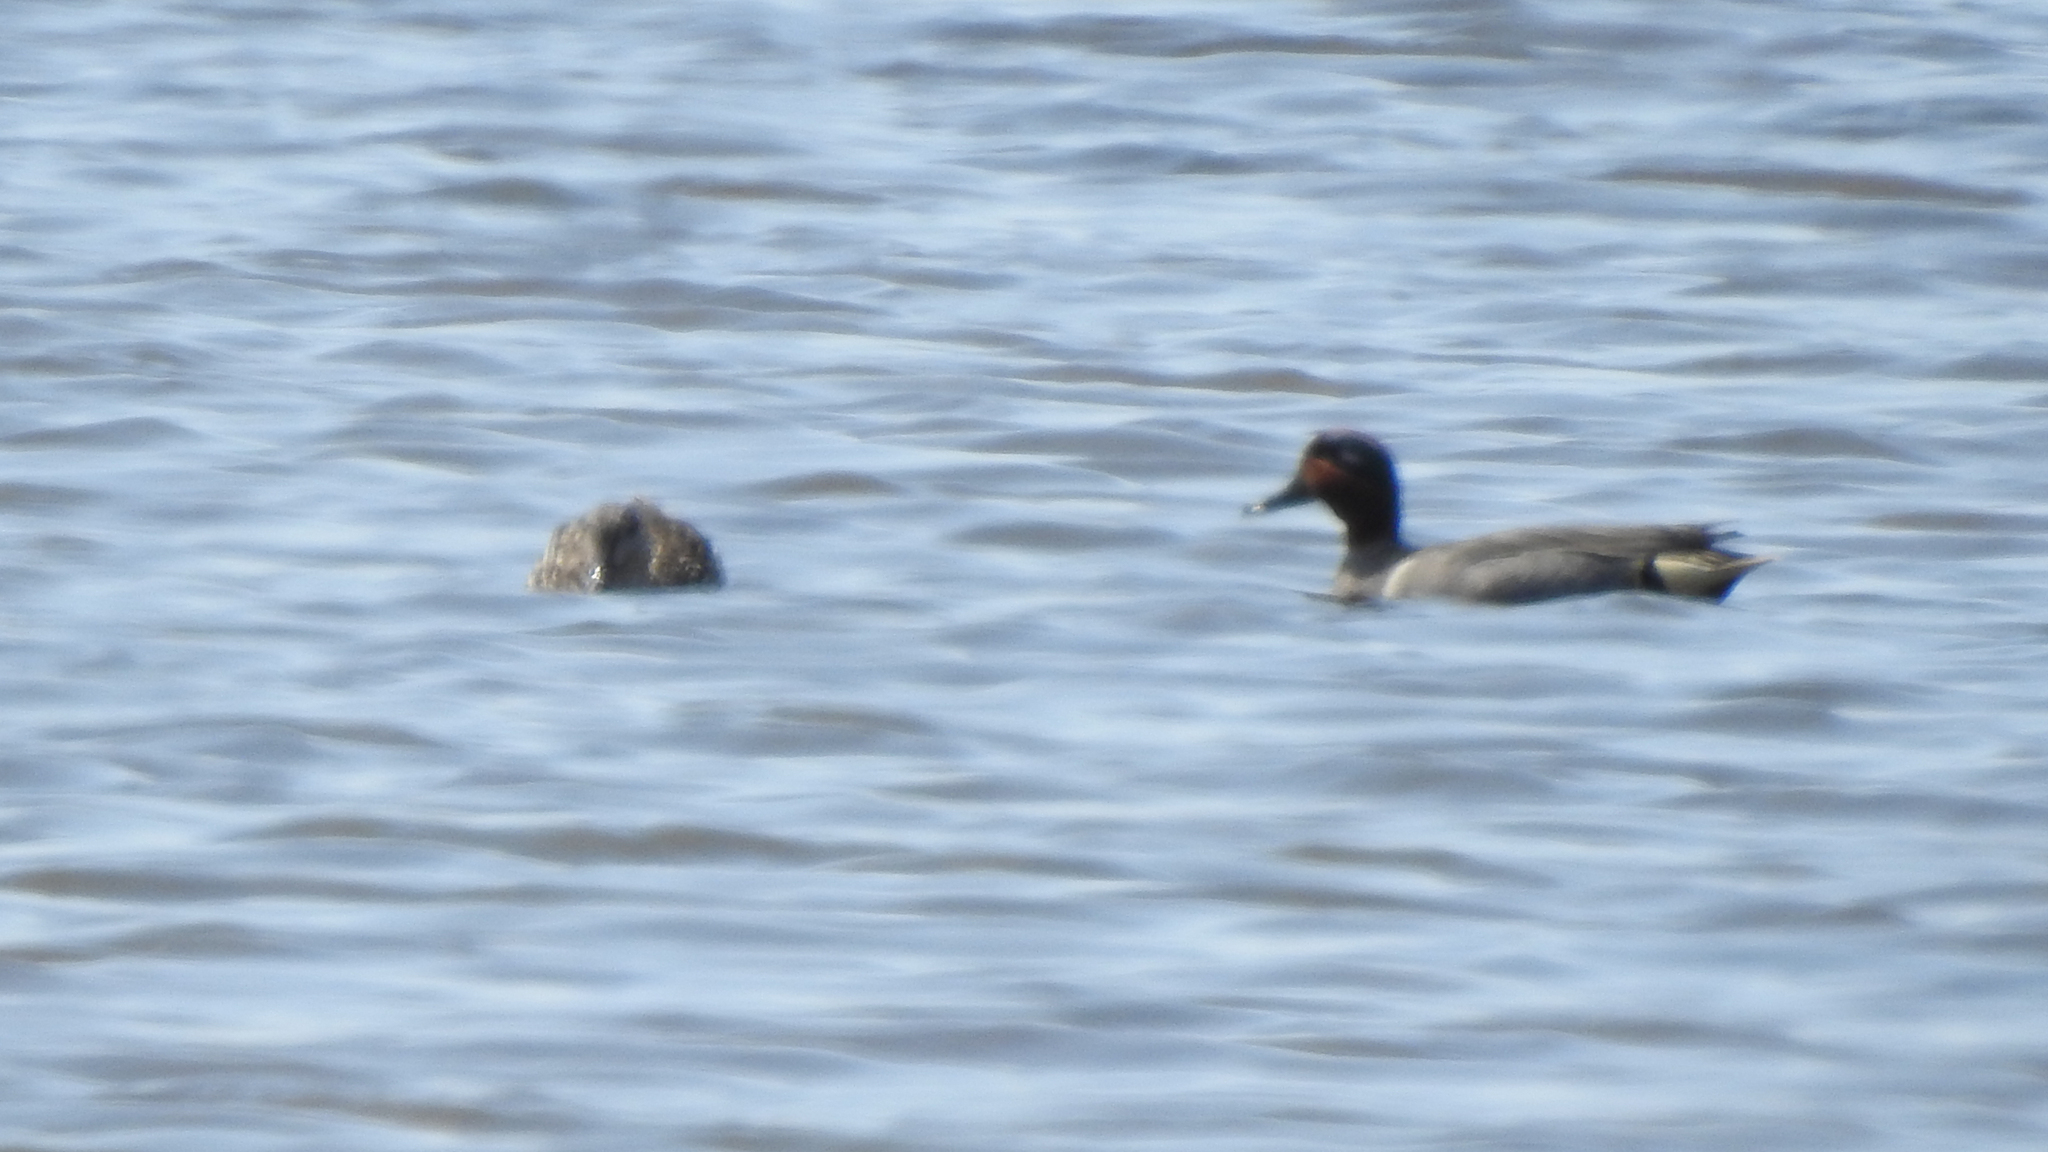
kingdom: Animalia
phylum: Chordata
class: Aves
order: Anseriformes
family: Anatidae
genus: Anas
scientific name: Anas crecca
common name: Eurasian teal
